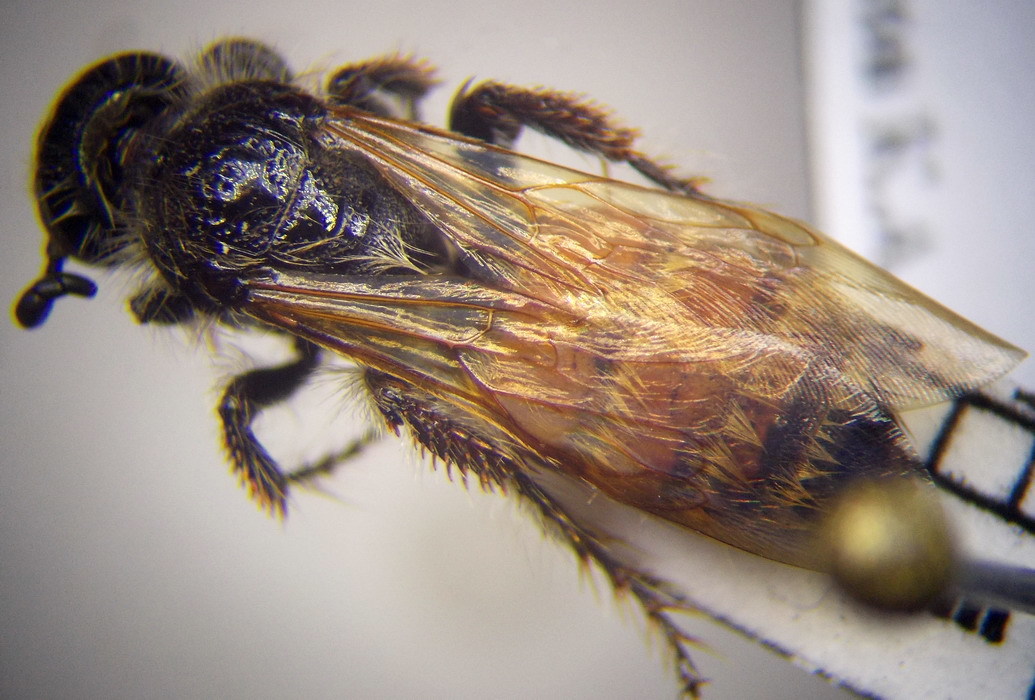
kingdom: Animalia
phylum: Arthropoda
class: Insecta
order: Hymenoptera
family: Scoliidae
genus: Colpa
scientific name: Colpa quinquecincta
